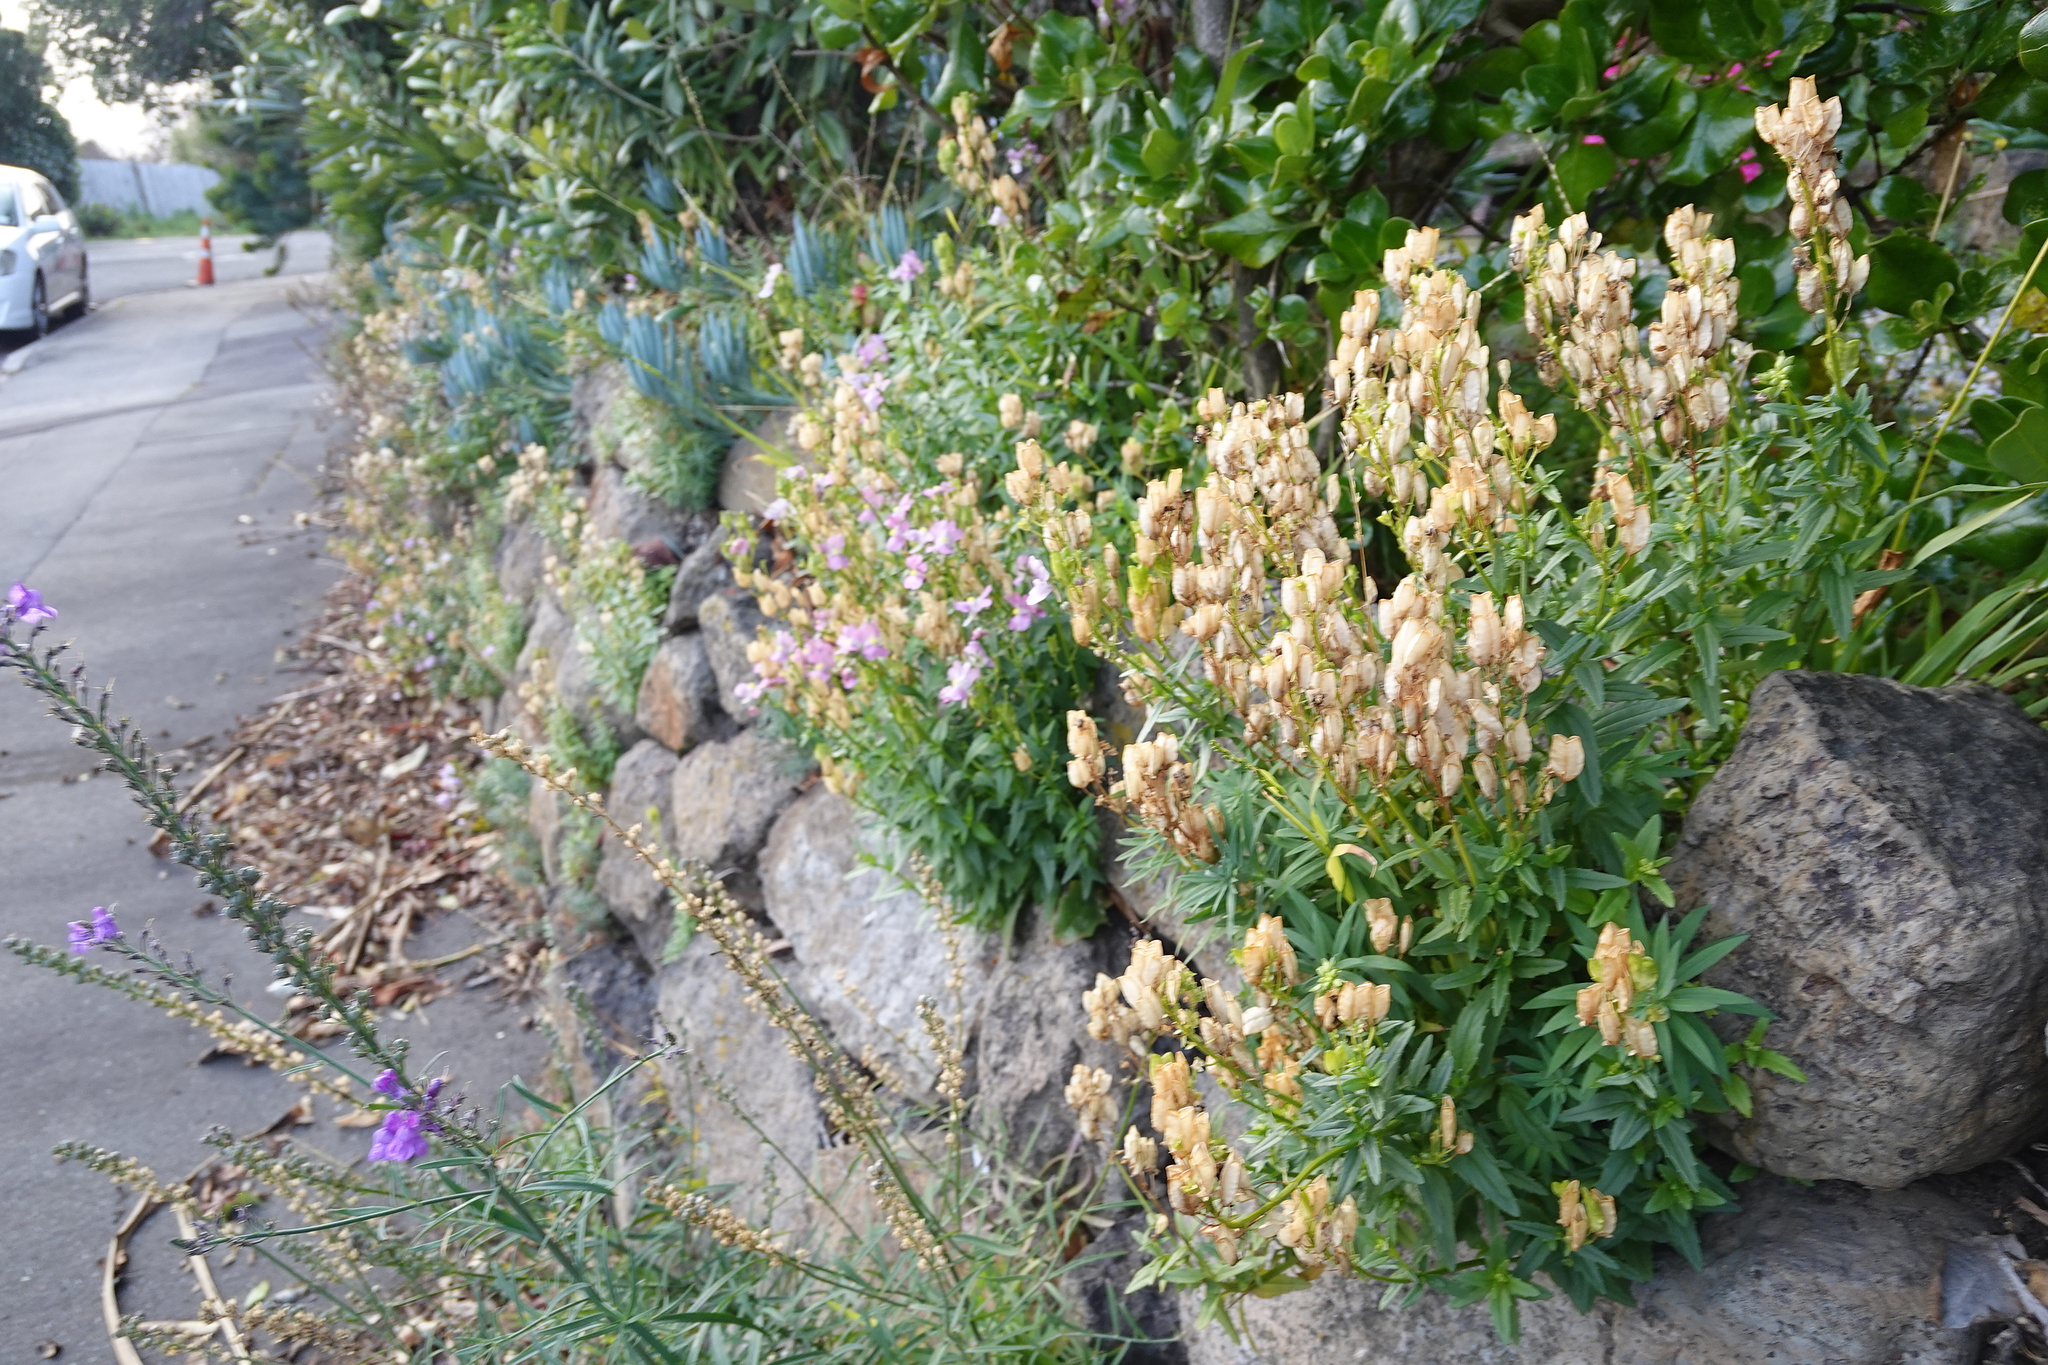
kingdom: Plantae
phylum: Tracheophyta
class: Magnoliopsida
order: Lamiales
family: Scrophulariaceae
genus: Nemesia
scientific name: Nemesia fruticans
